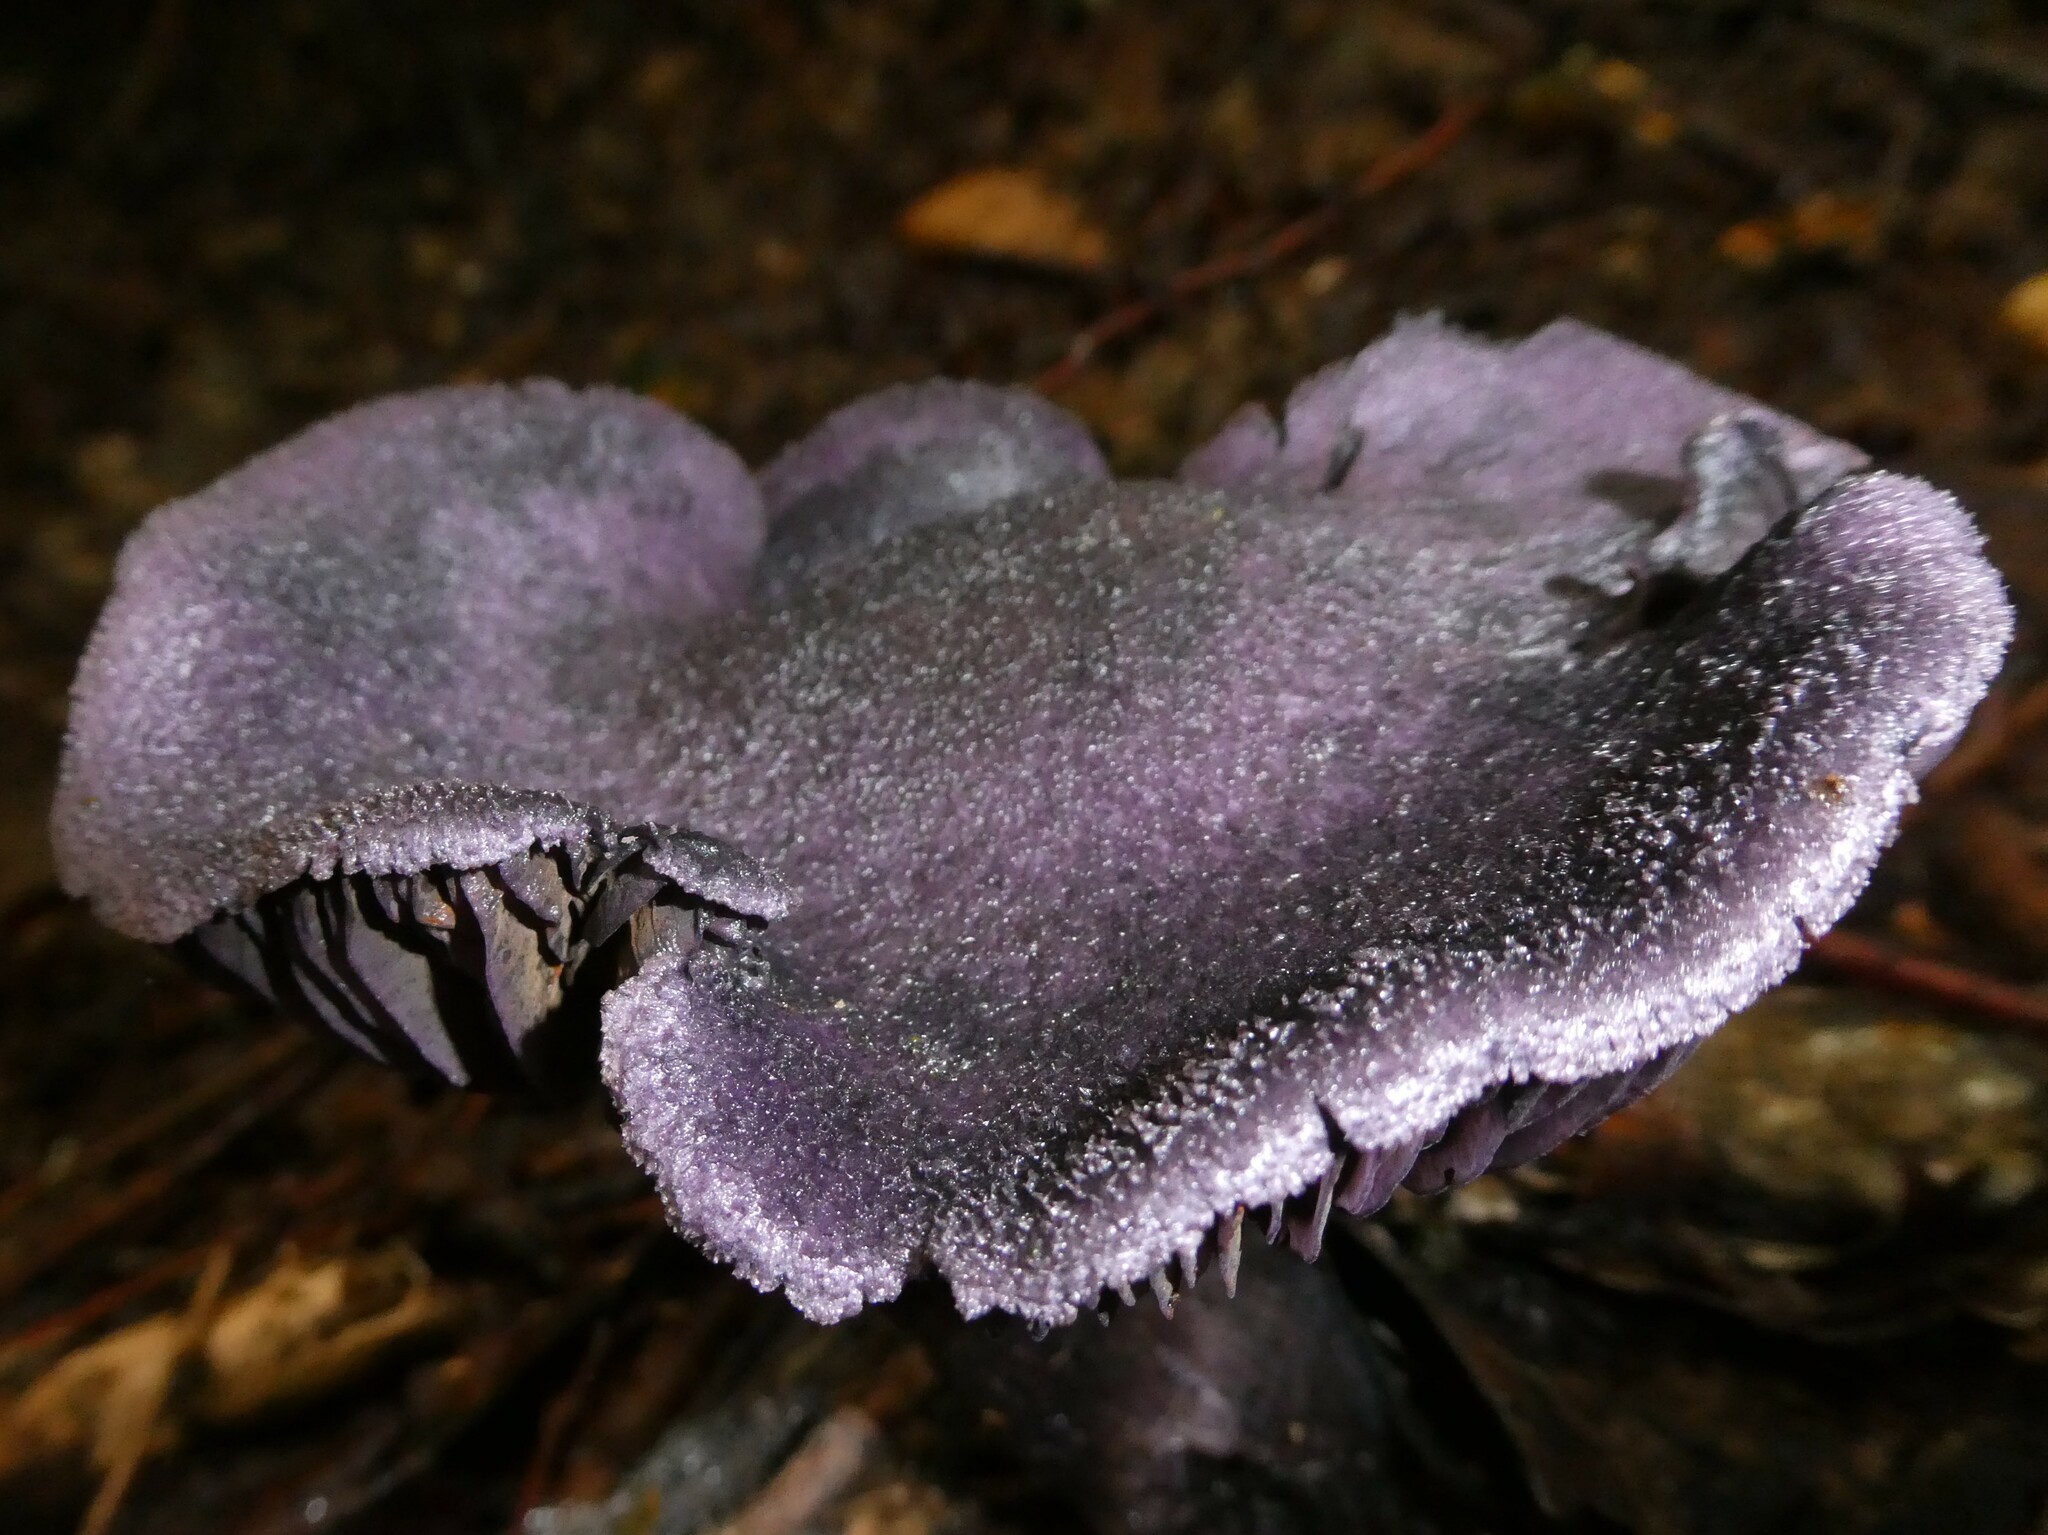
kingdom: Fungi
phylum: Basidiomycota
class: Agaricomycetes
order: Agaricales
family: Cortinariaceae
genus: Cortinarius
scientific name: Cortinarius violaceus
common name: Violet webcap
